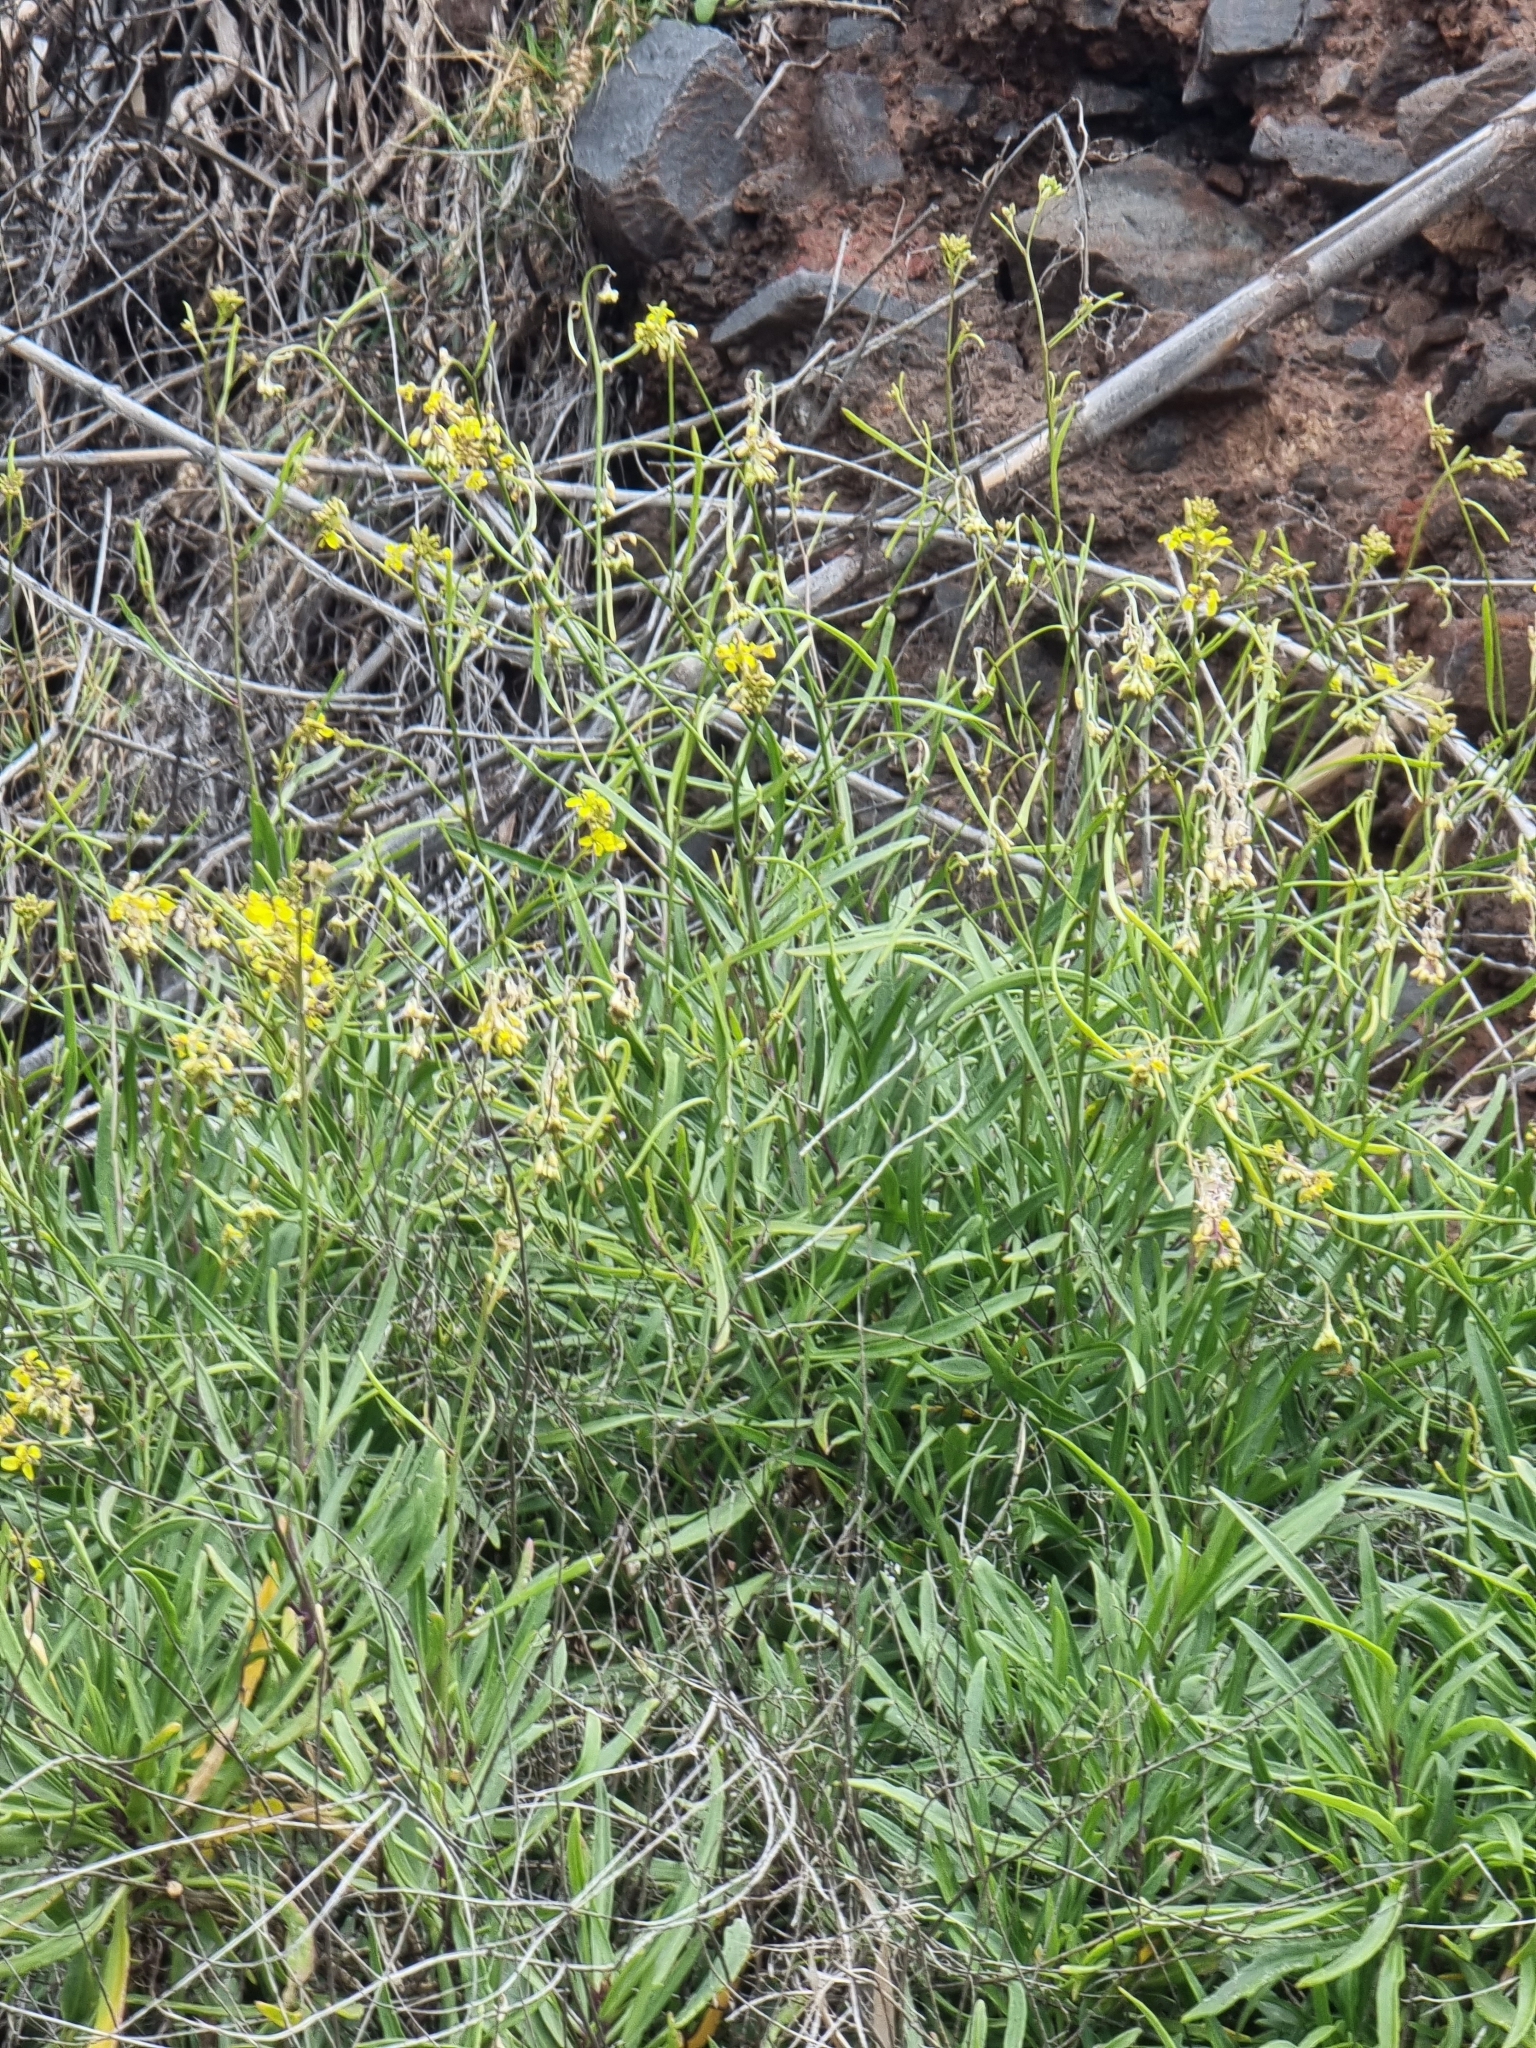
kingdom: Plantae
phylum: Tracheophyta
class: Magnoliopsida
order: Brassicales
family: Brassicaceae
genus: Sinapidendron
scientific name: Sinapidendron angustifolium
